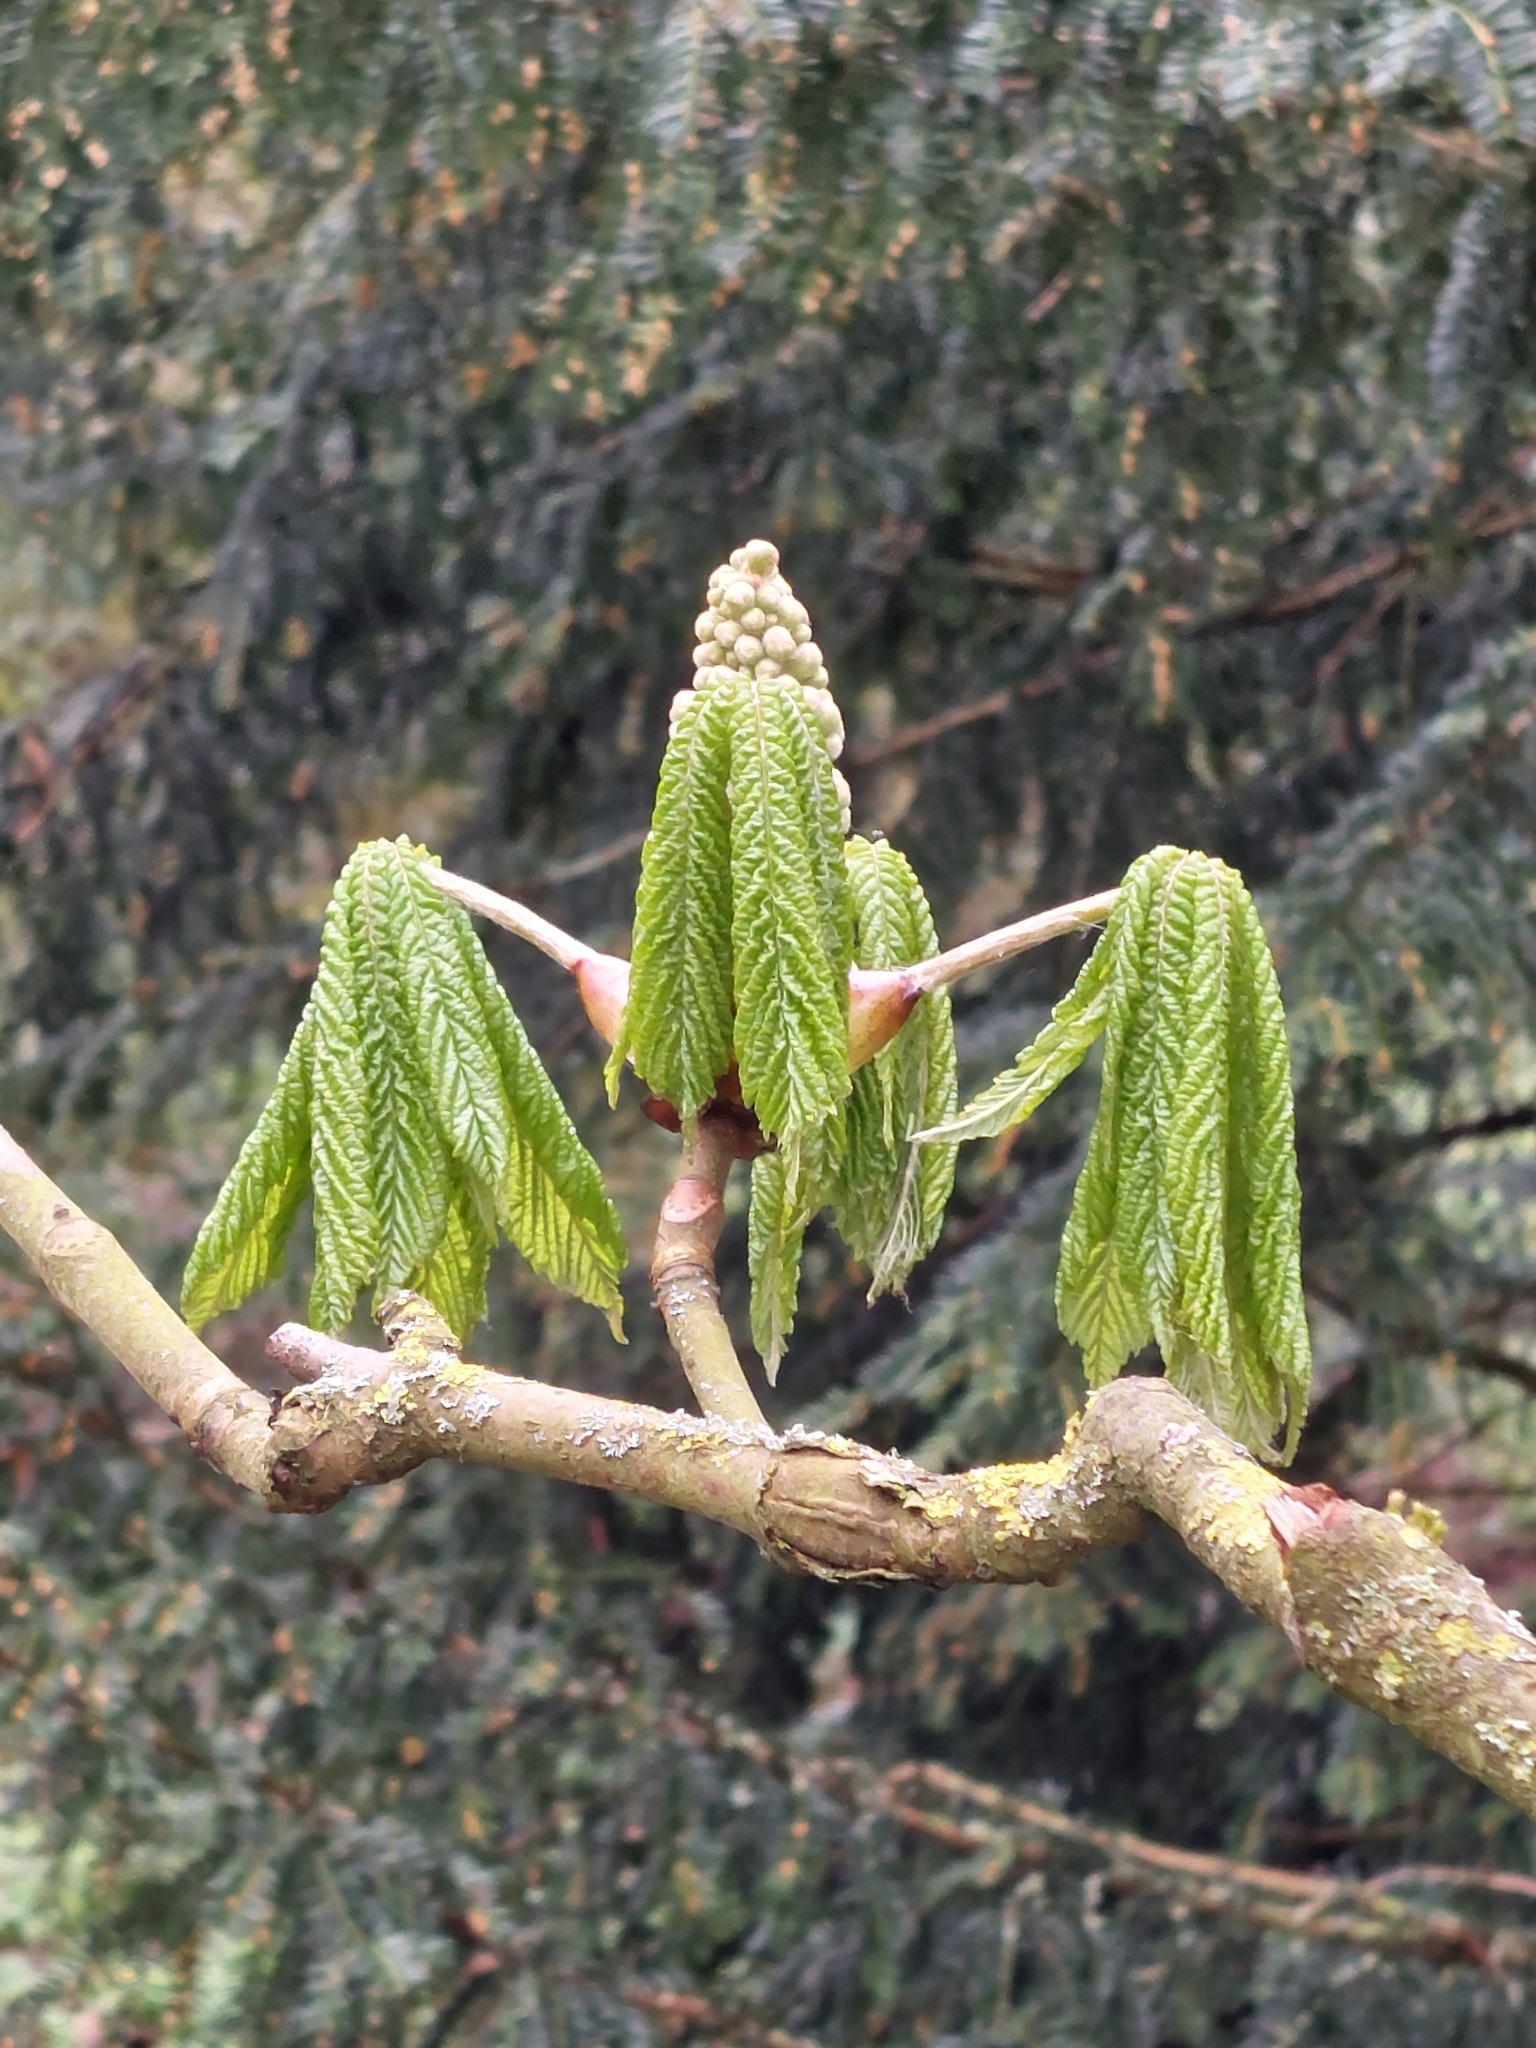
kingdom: Plantae
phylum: Tracheophyta
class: Magnoliopsida
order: Sapindales
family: Sapindaceae
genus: Aesculus
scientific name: Aesculus hippocastanum
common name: Horse-chestnut
